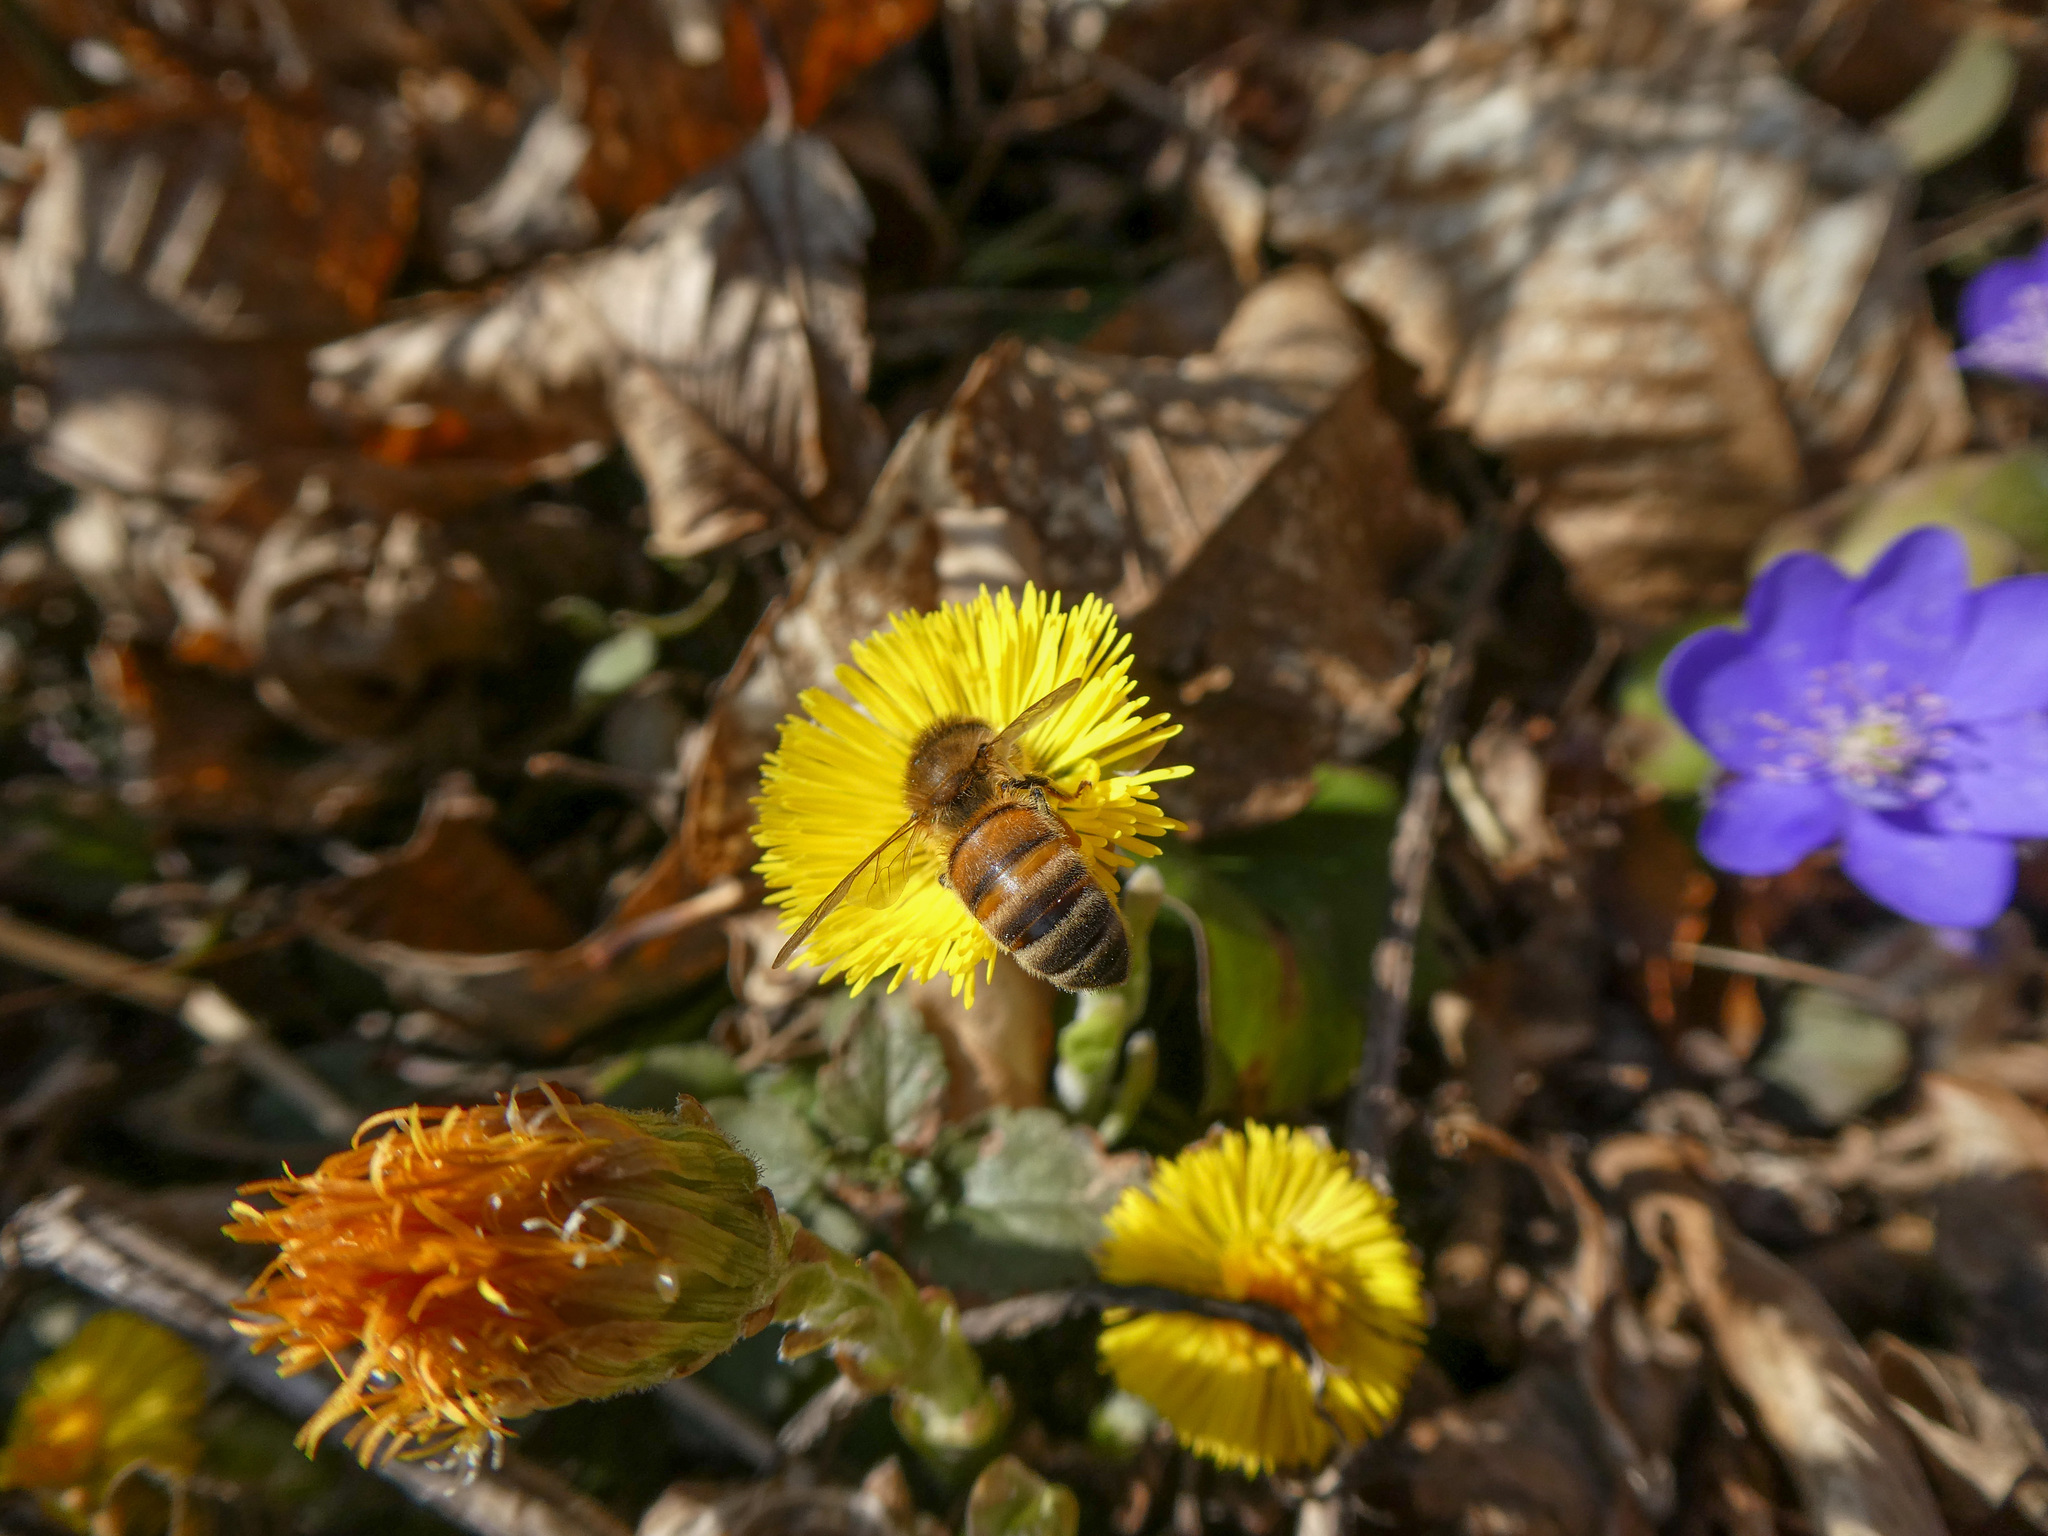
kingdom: Animalia
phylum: Arthropoda
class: Insecta
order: Hymenoptera
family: Apidae
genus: Apis
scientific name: Apis mellifera
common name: Honey bee
